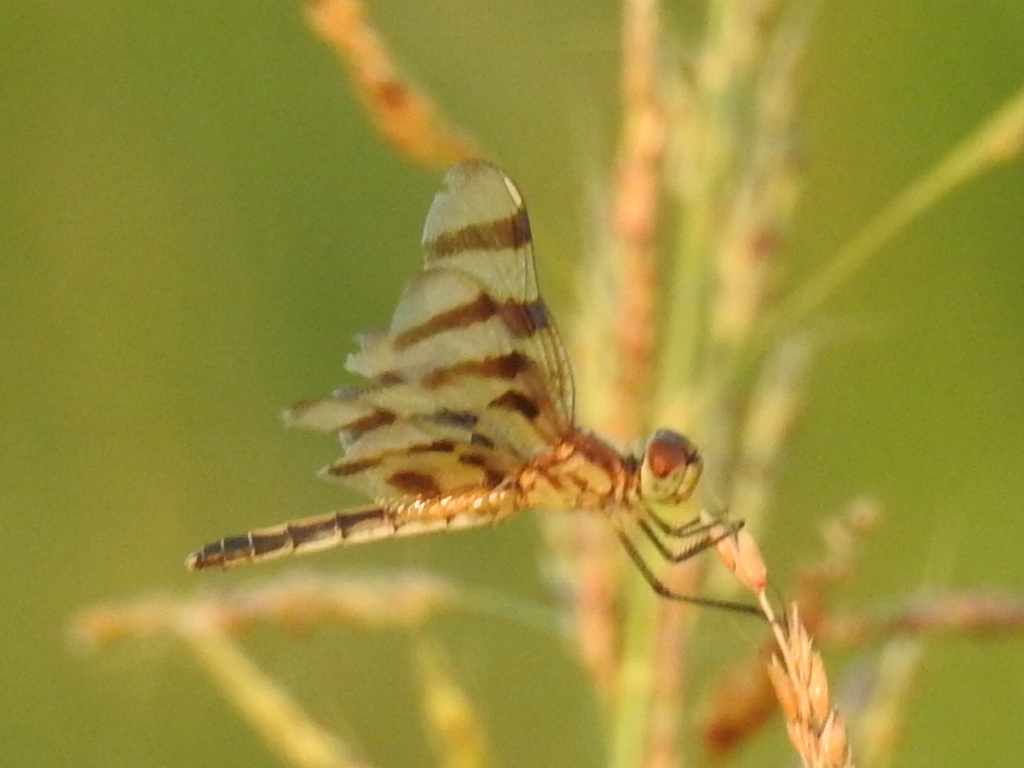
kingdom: Animalia
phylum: Arthropoda
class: Insecta
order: Odonata
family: Libellulidae
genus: Celithemis
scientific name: Celithemis eponina
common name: Halloween pennant
